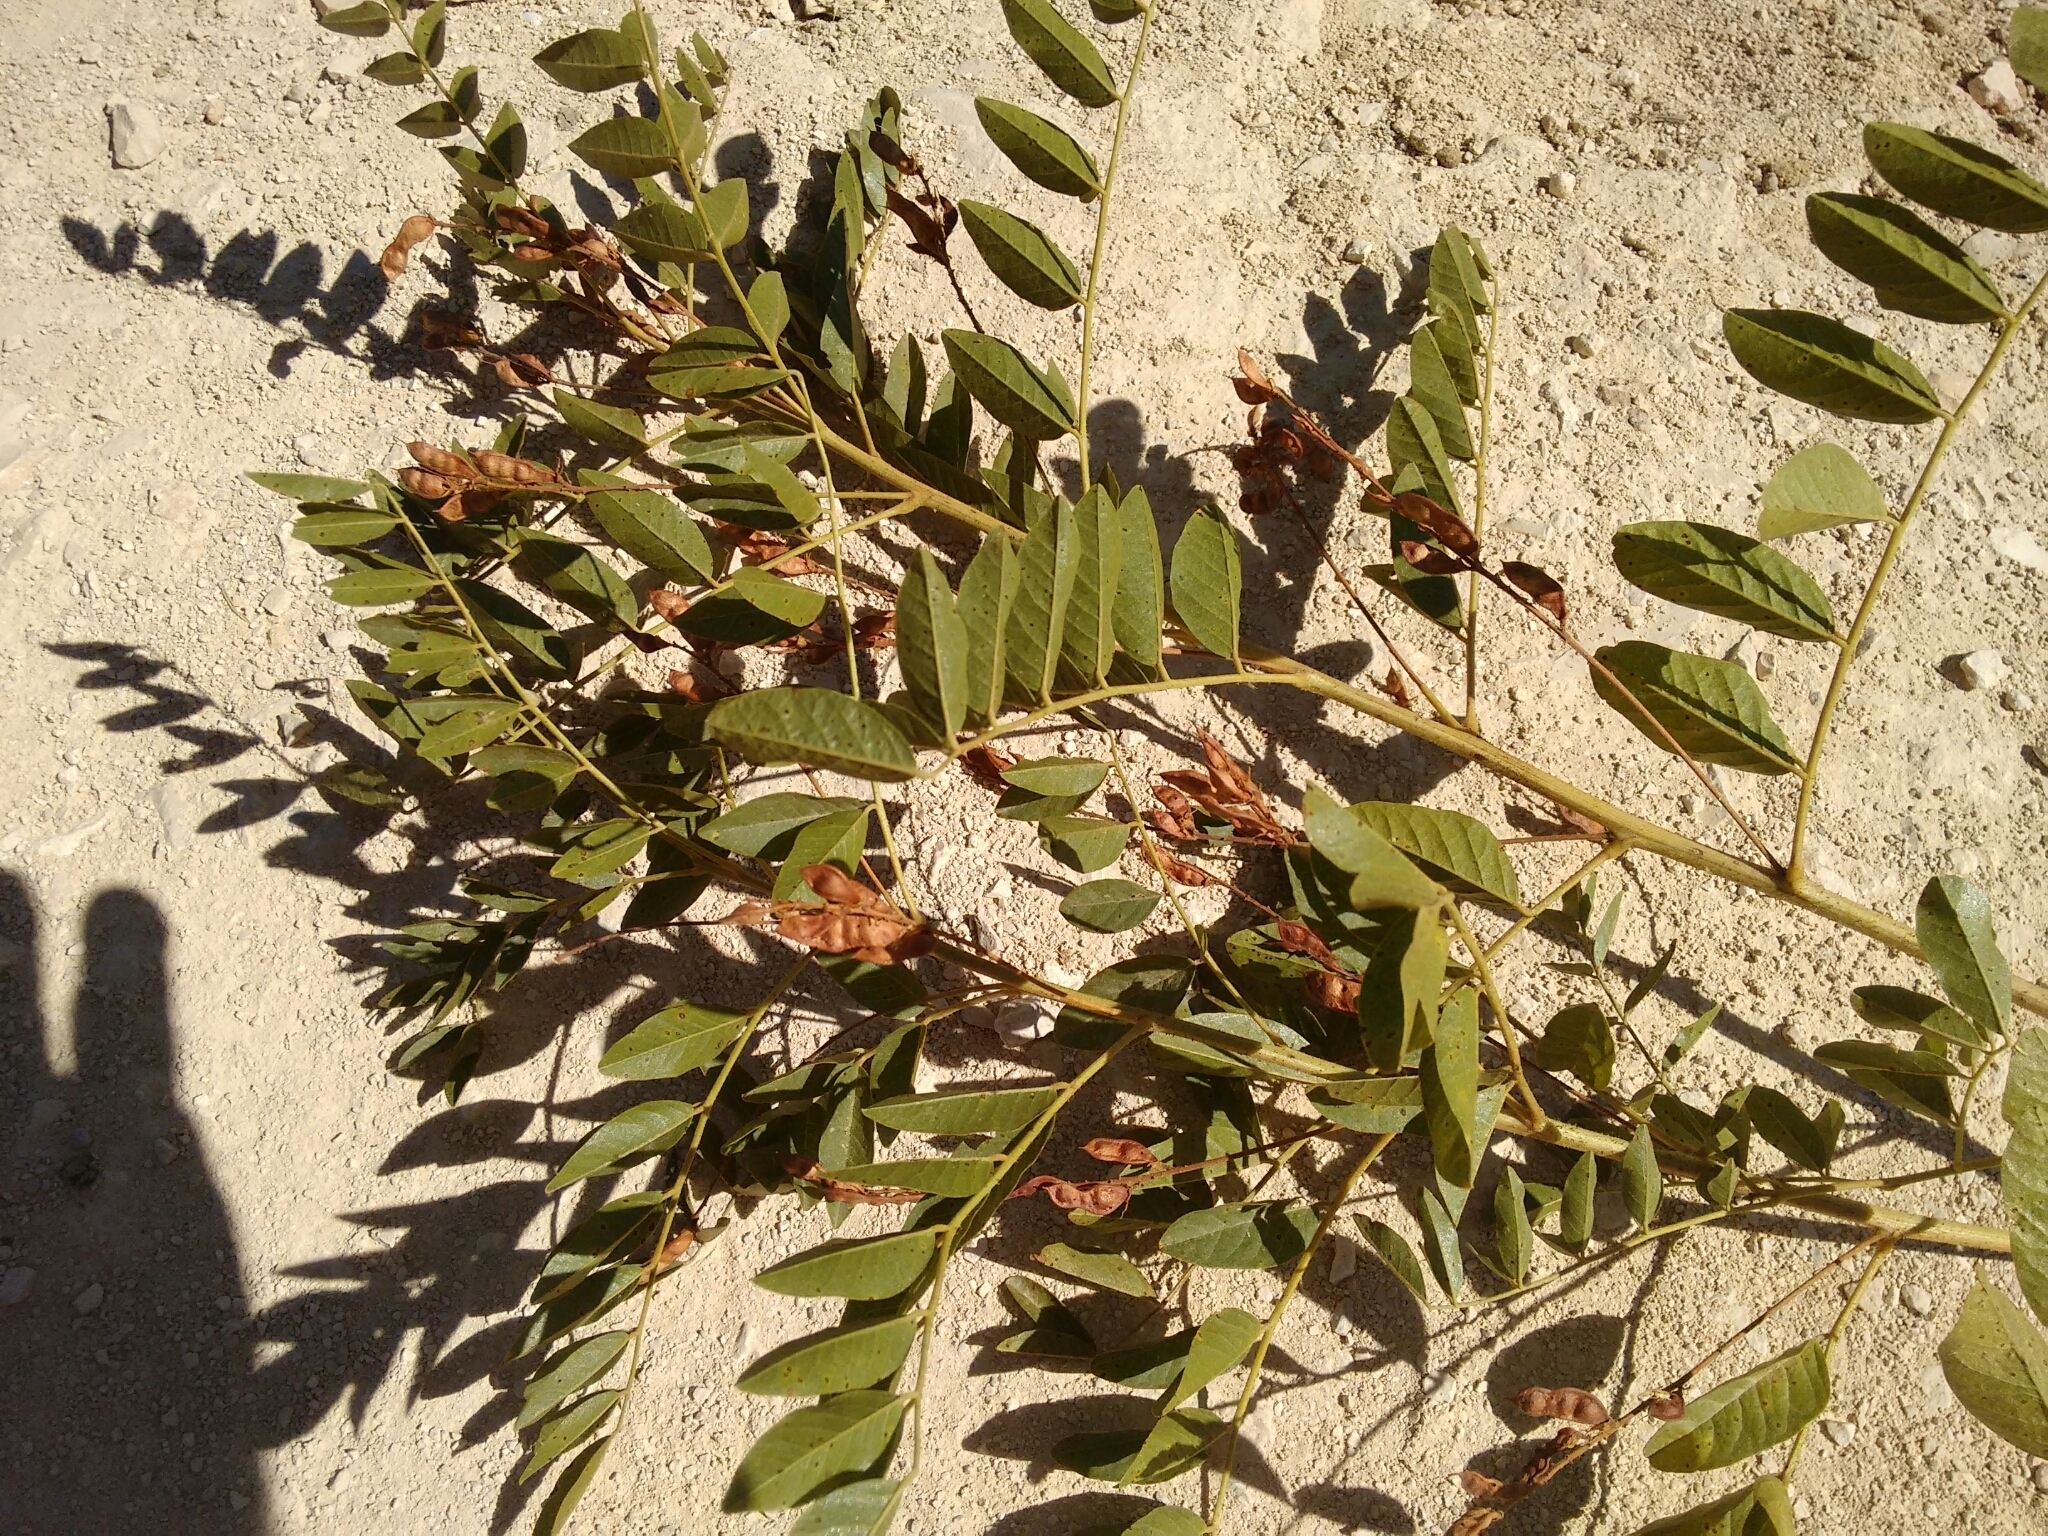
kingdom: Plantae
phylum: Tracheophyta
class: Magnoliopsida
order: Fabales
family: Fabaceae
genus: Glycyrrhiza
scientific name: Glycyrrhiza glabra
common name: Liquorice
